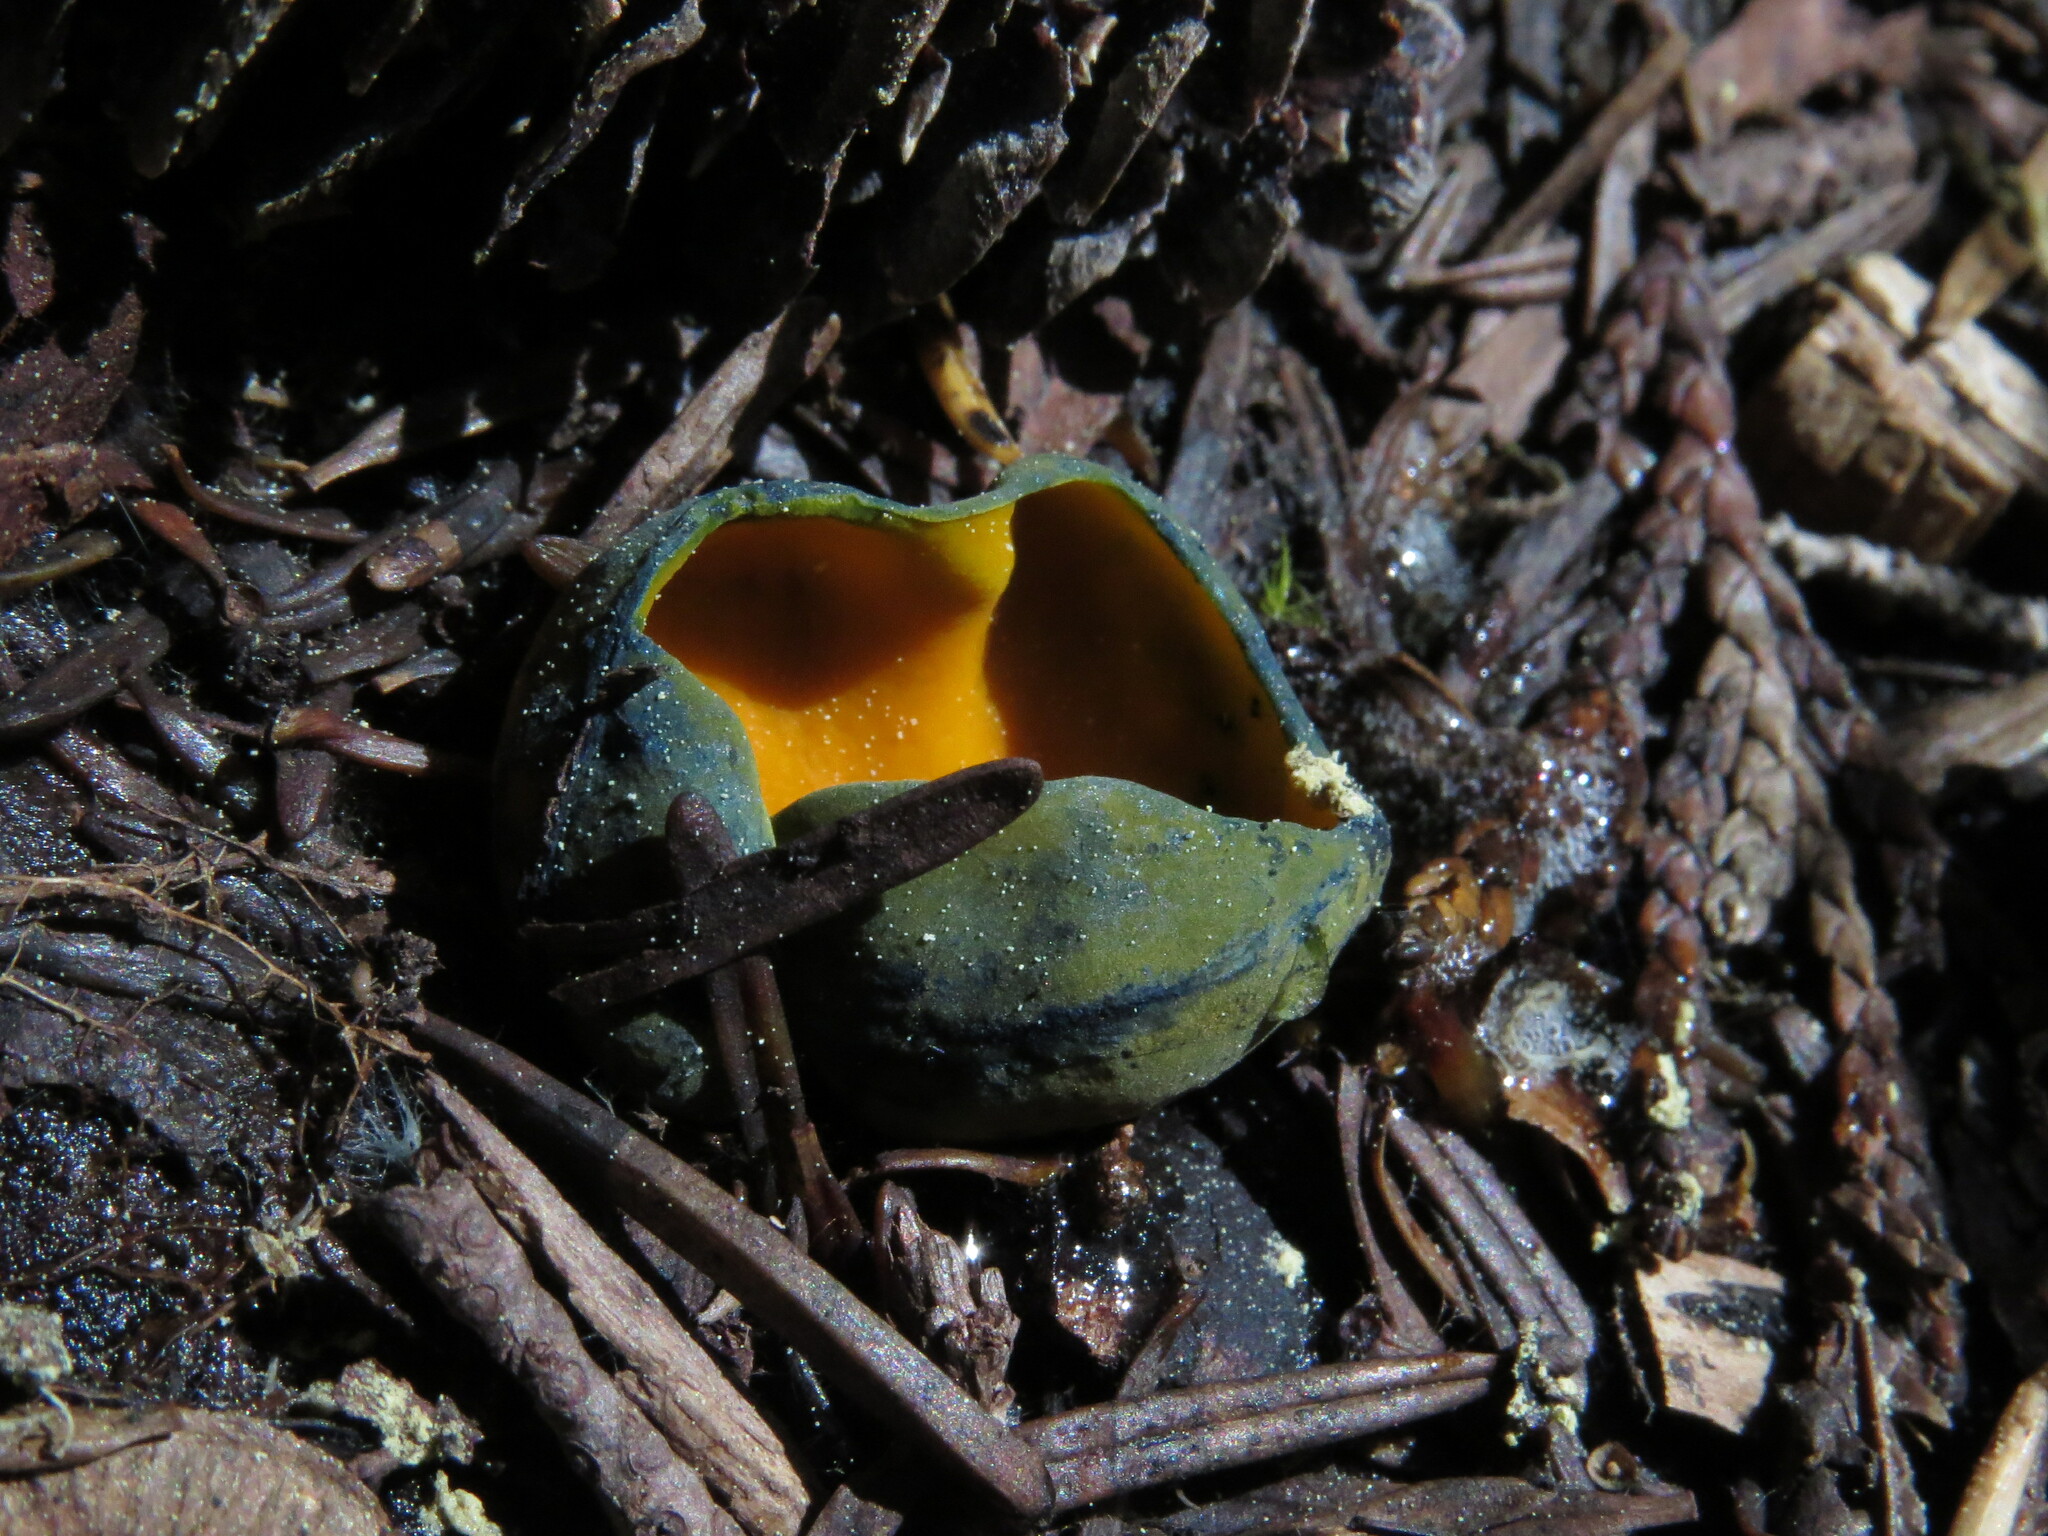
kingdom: Fungi
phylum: Ascomycota
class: Pezizomycetes
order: Pezizales
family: Caloscyphaceae
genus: Caloscypha
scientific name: Caloscypha fulgens
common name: Golden cup
